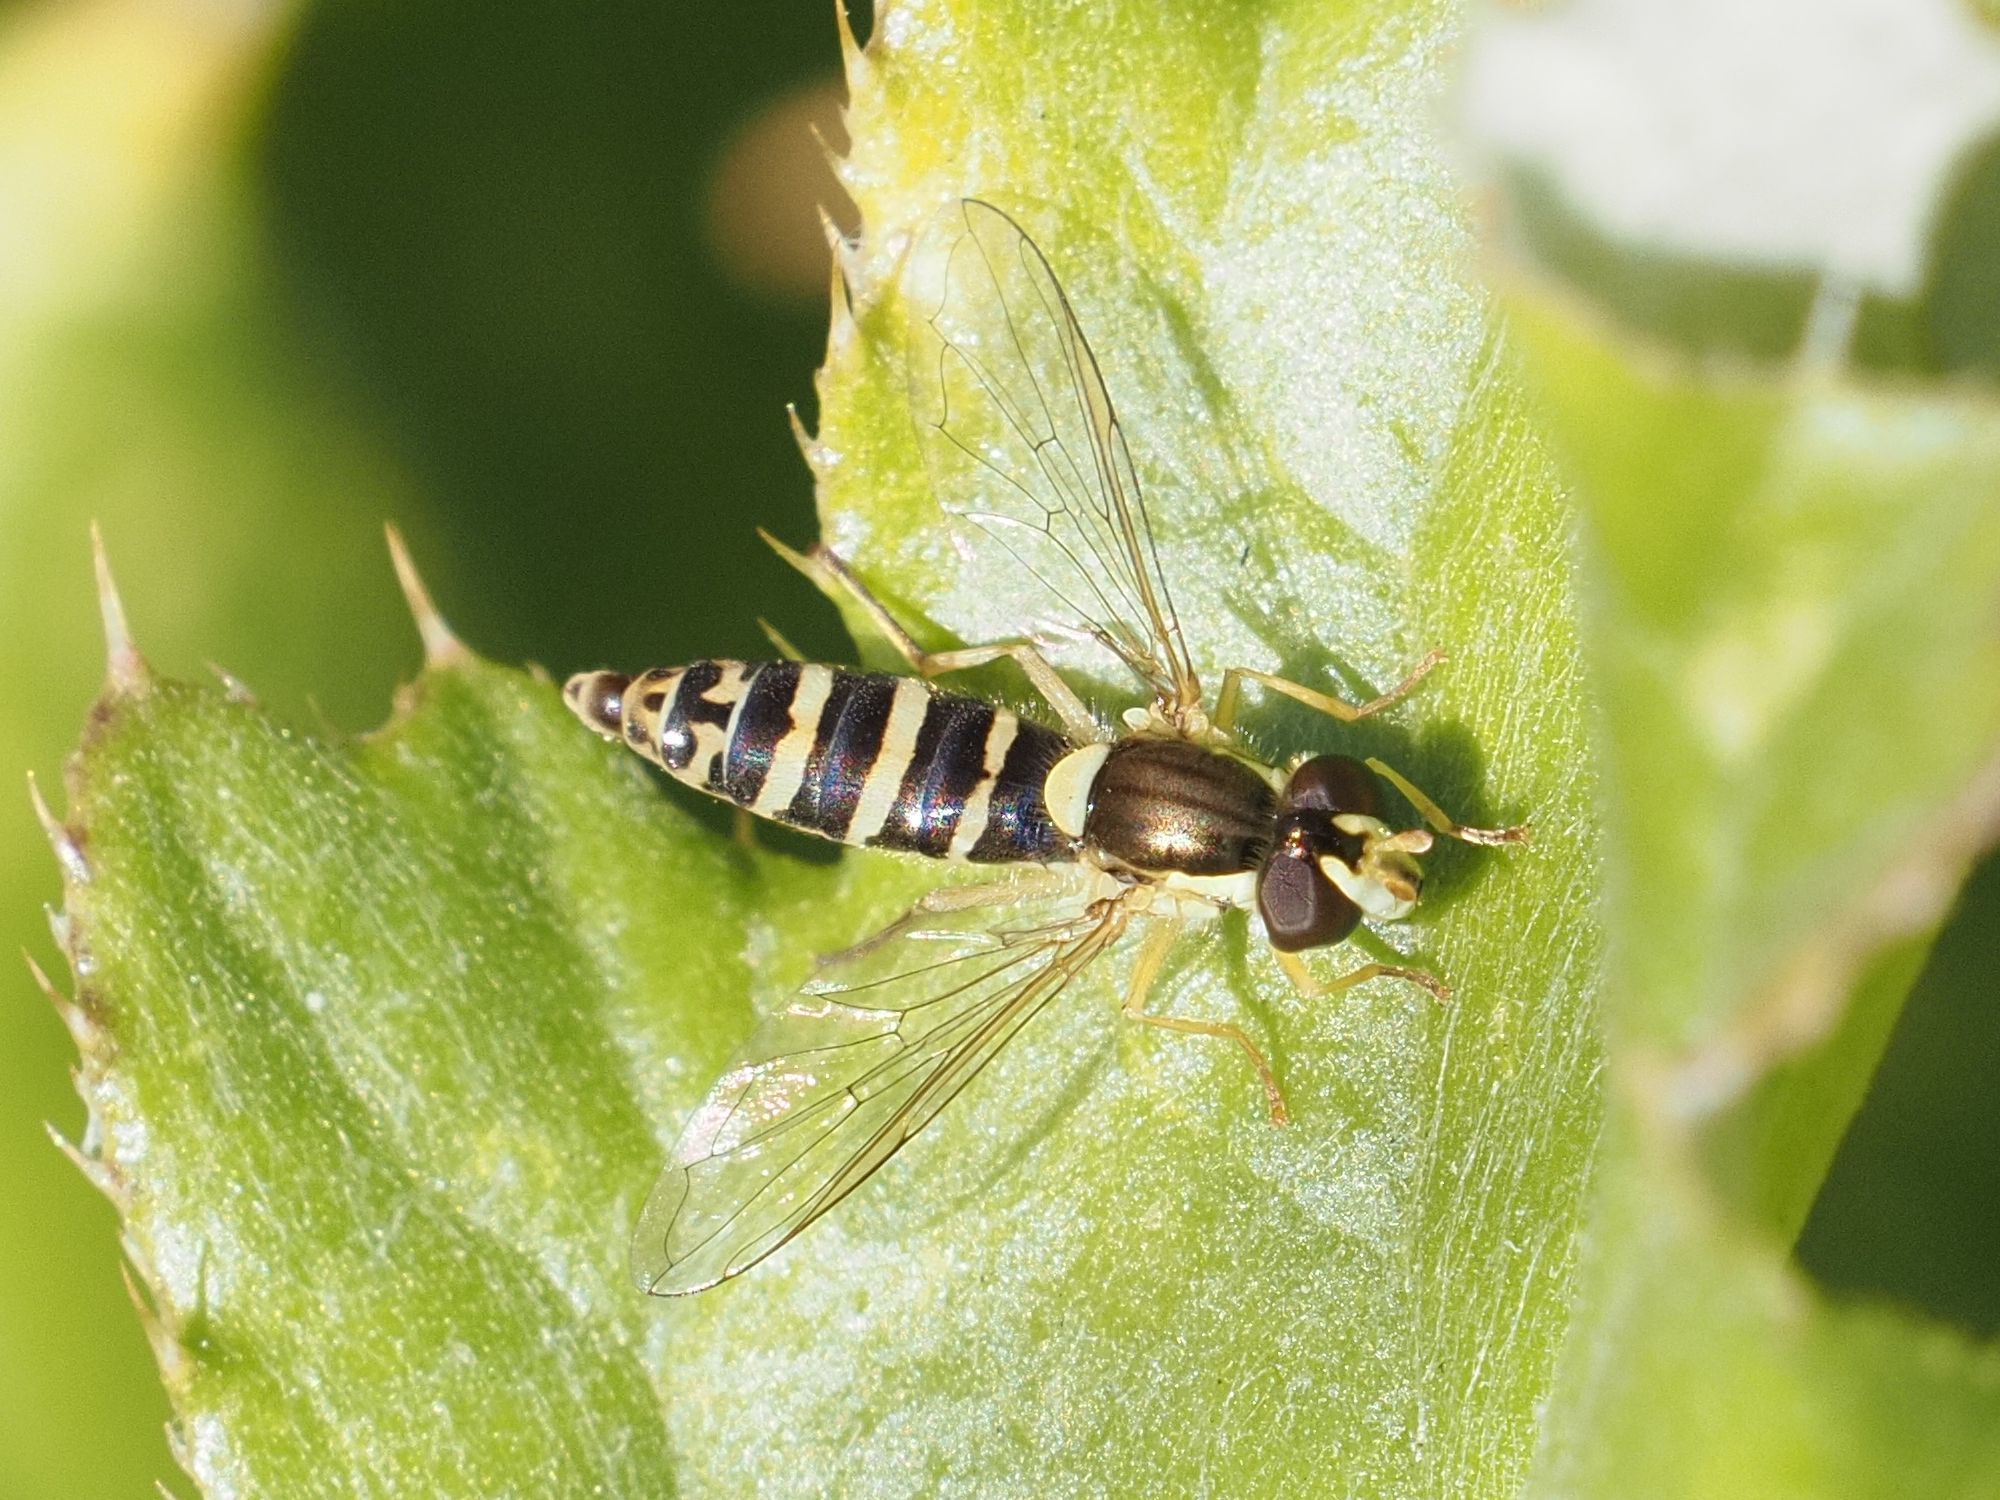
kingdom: Animalia
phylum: Arthropoda
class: Insecta
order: Diptera
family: Syrphidae
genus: Sphaerophoria
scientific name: Sphaerophoria
